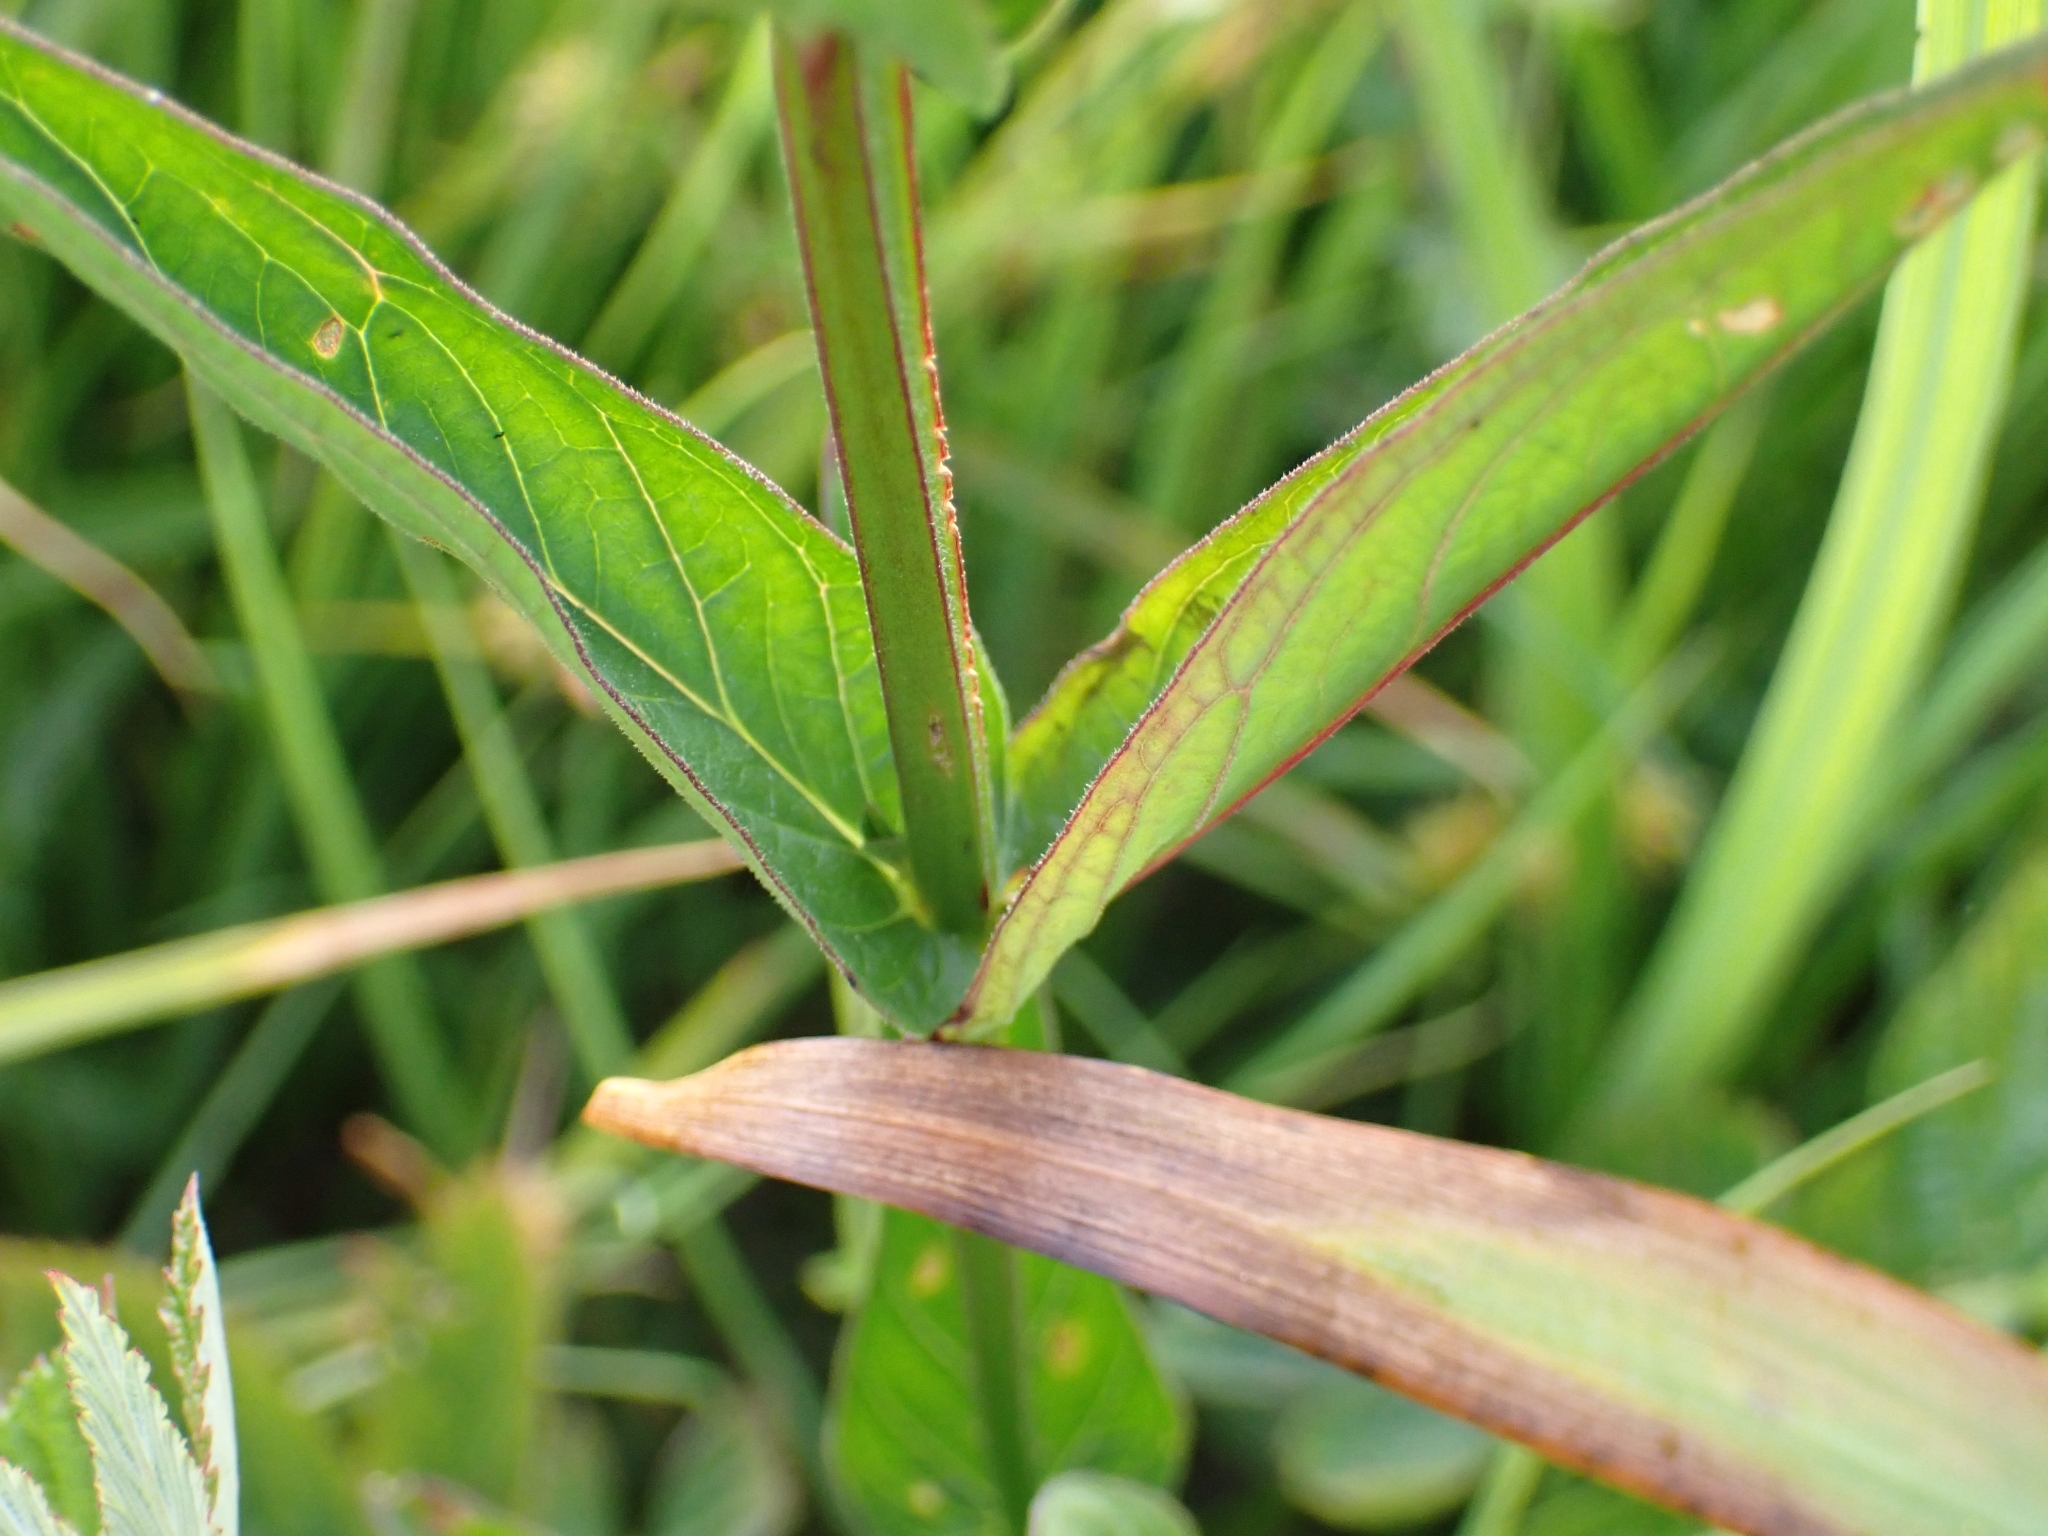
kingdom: Plantae
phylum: Tracheophyta
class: Magnoliopsida
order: Myrtales
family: Lythraceae
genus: Lythrum
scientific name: Lythrum salicaria
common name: Purple loosestrife
